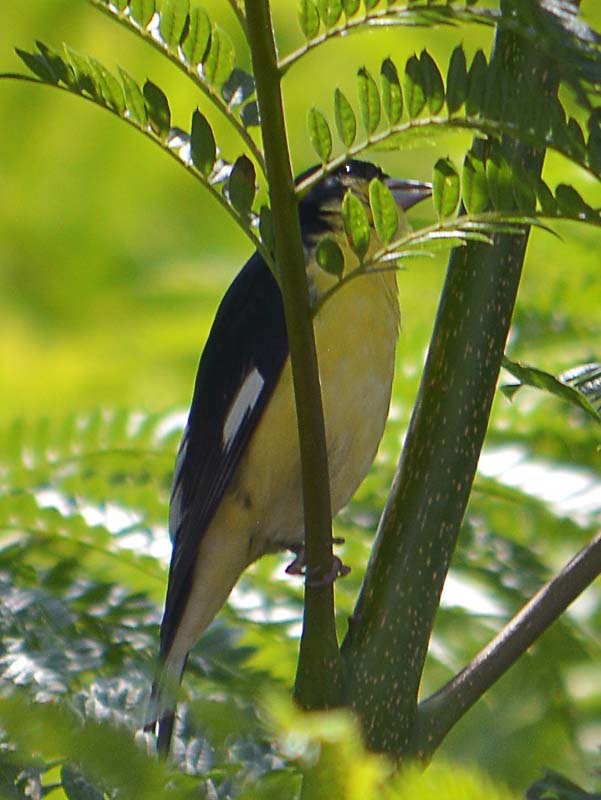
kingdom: Animalia
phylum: Chordata
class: Aves
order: Passeriformes
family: Fringillidae
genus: Spinus
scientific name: Spinus psaltria
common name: Lesser goldfinch
